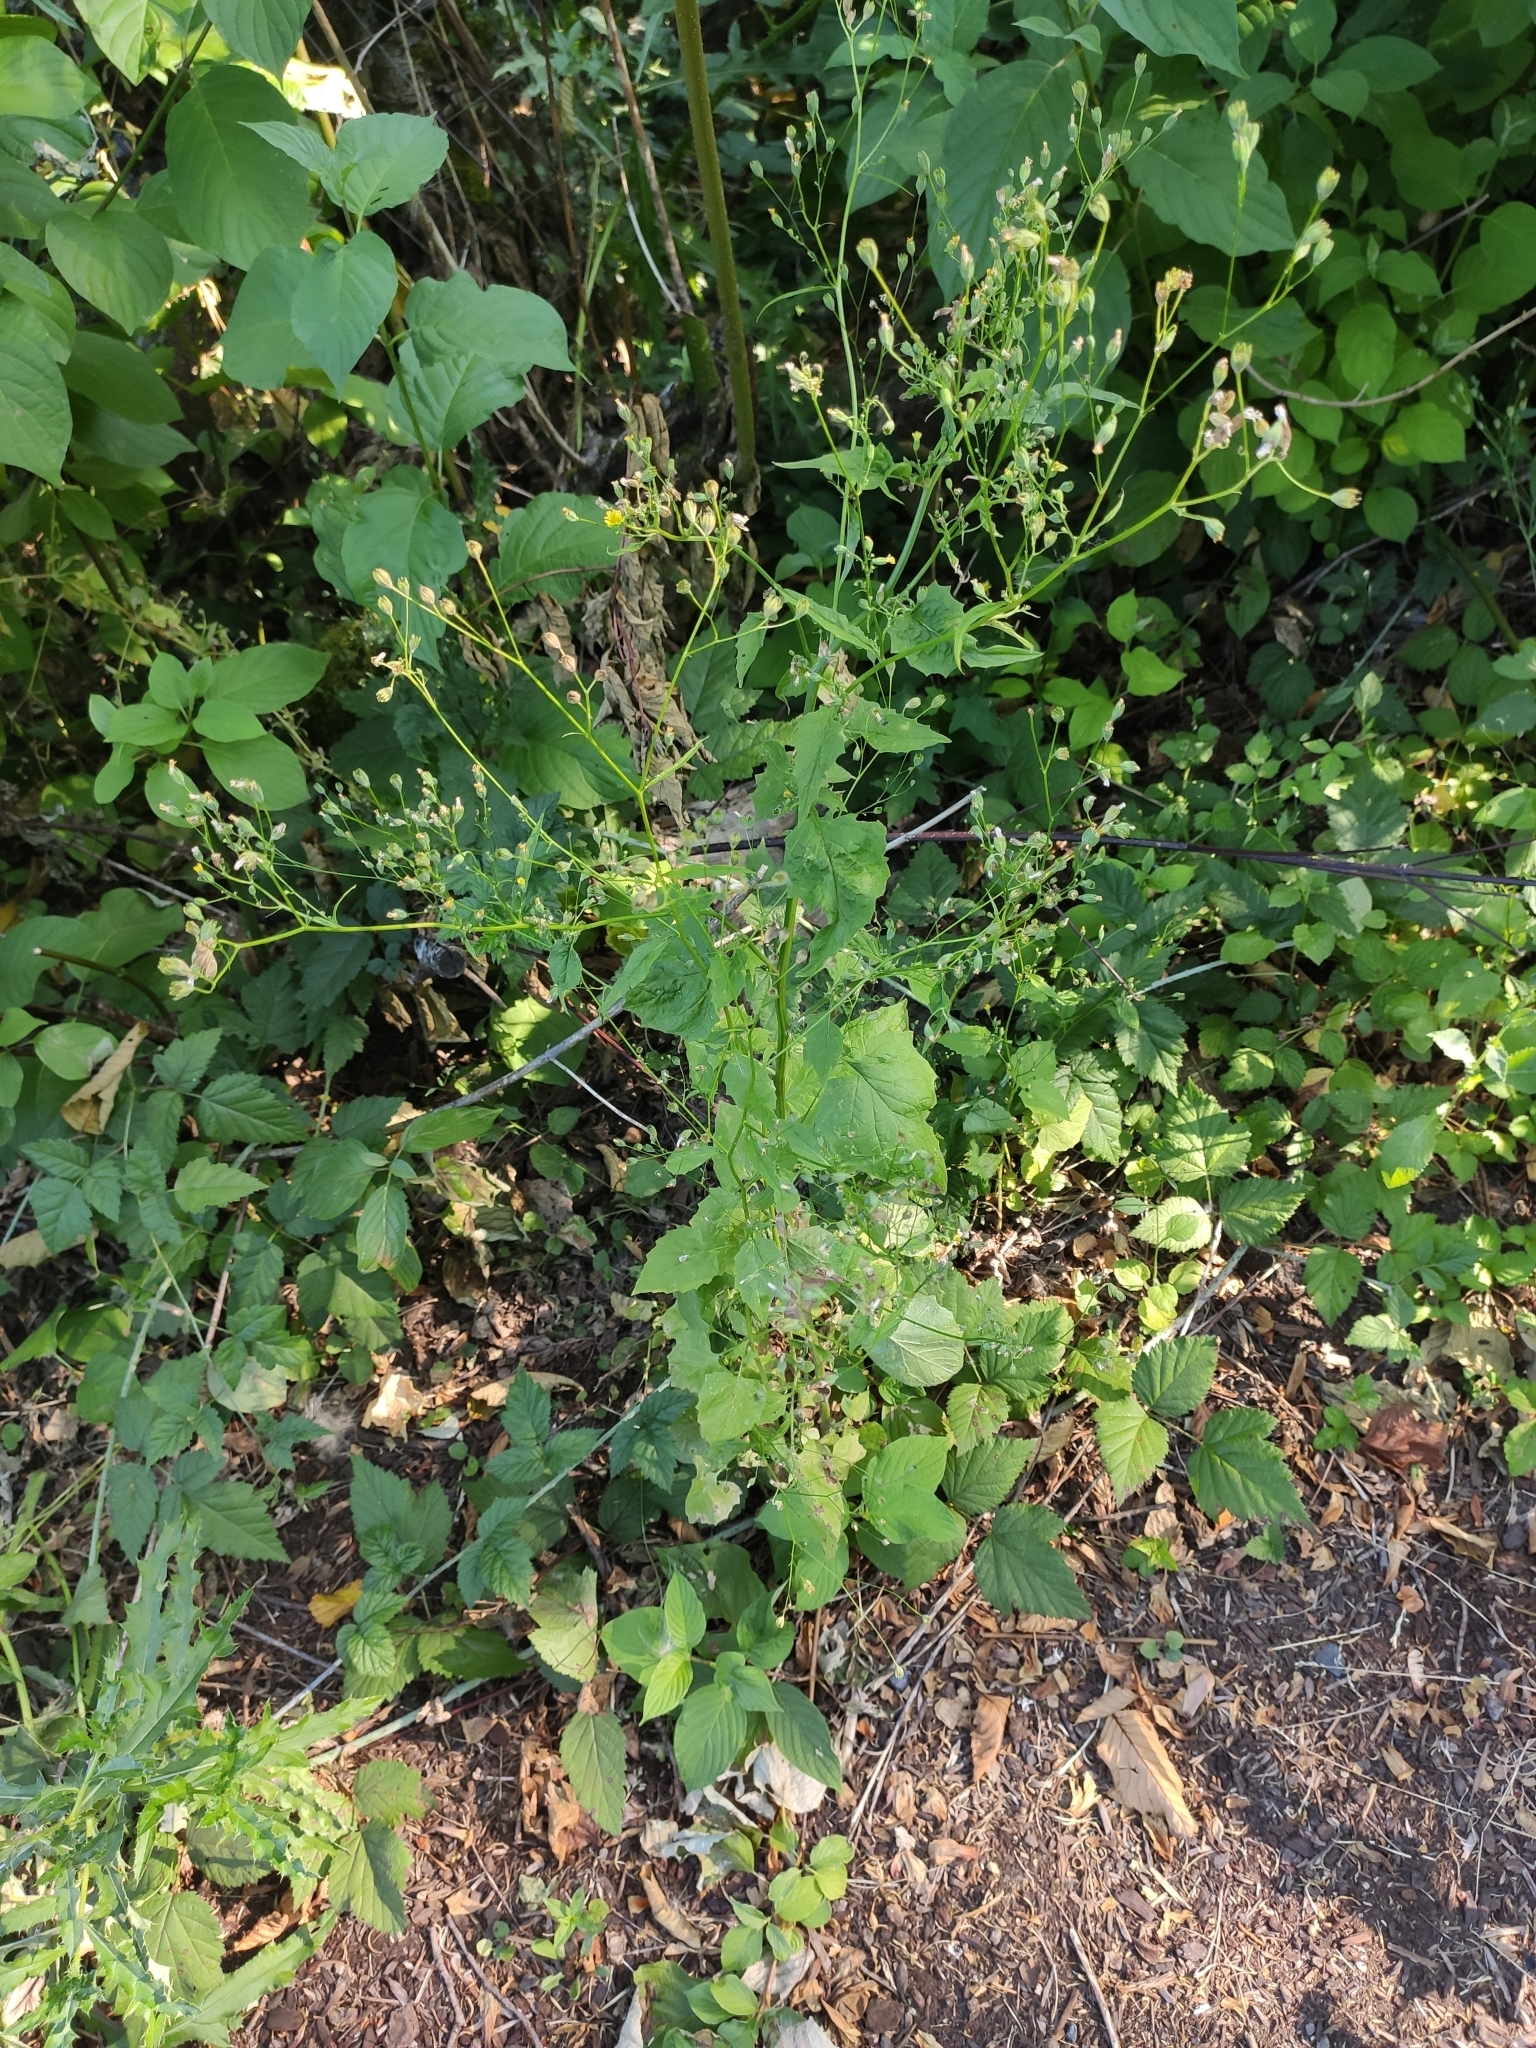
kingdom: Plantae
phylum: Tracheophyta
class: Magnoliopsida
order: Asterales
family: Asteraceae
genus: Lapsana
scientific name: Lapsana communis
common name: Nipplewort
